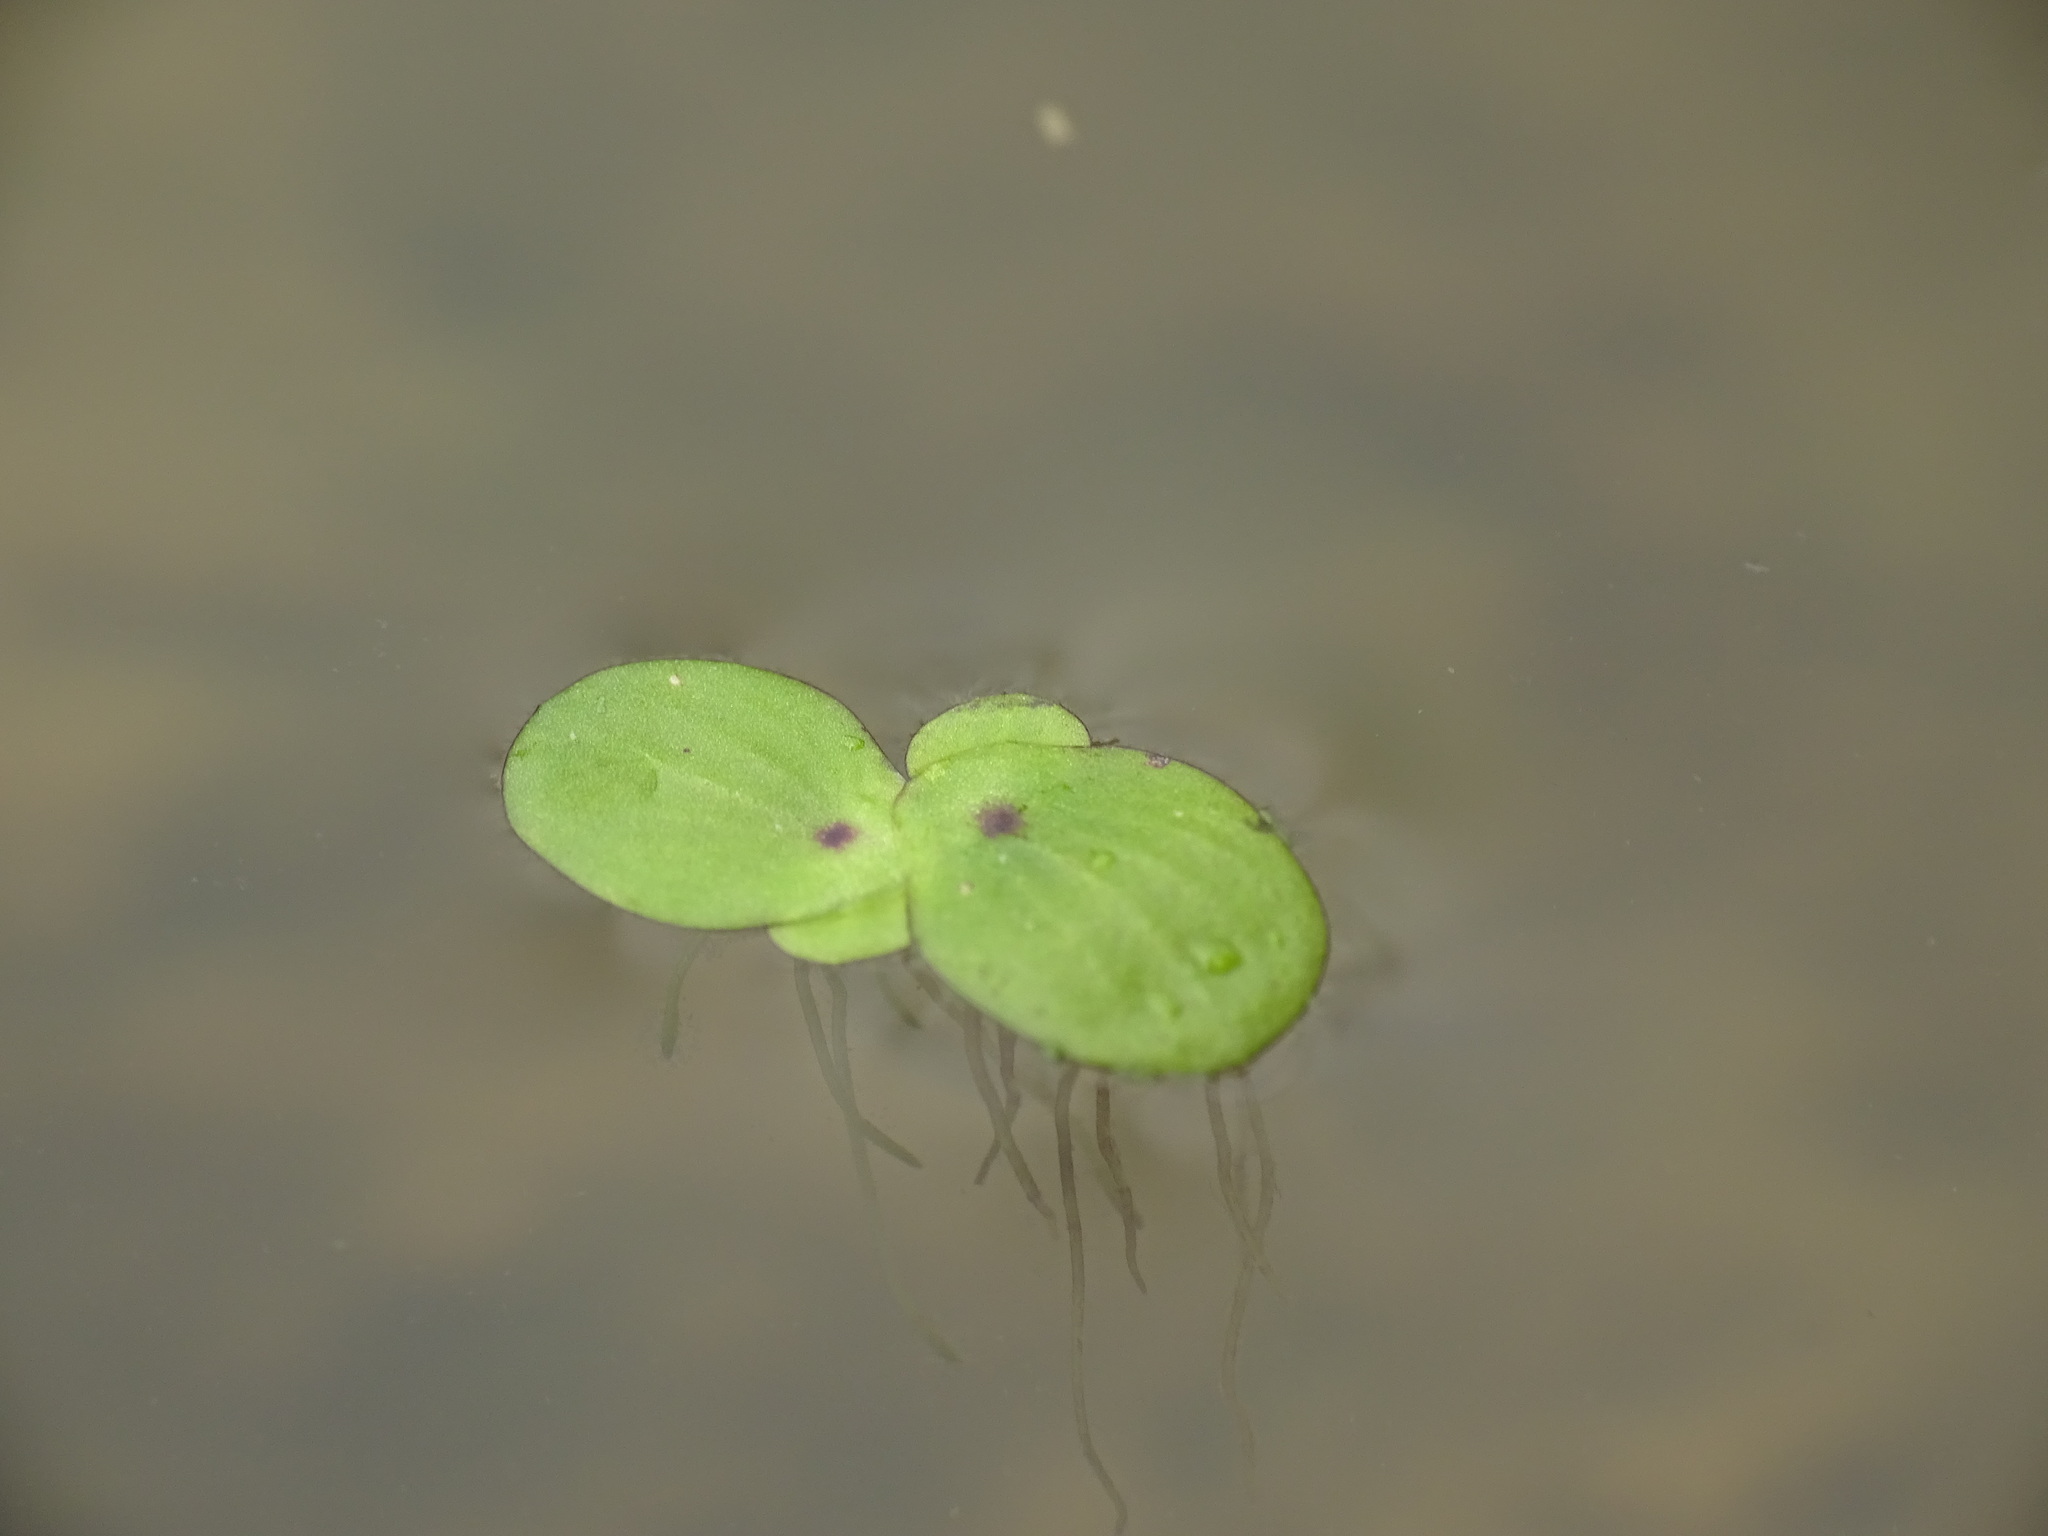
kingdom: Plantae
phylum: Tracheophyta
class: Liliopsida
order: Alismatales
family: Araceae
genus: Spirodela
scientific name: Spirodela polyrhiza
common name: Great duckweed
